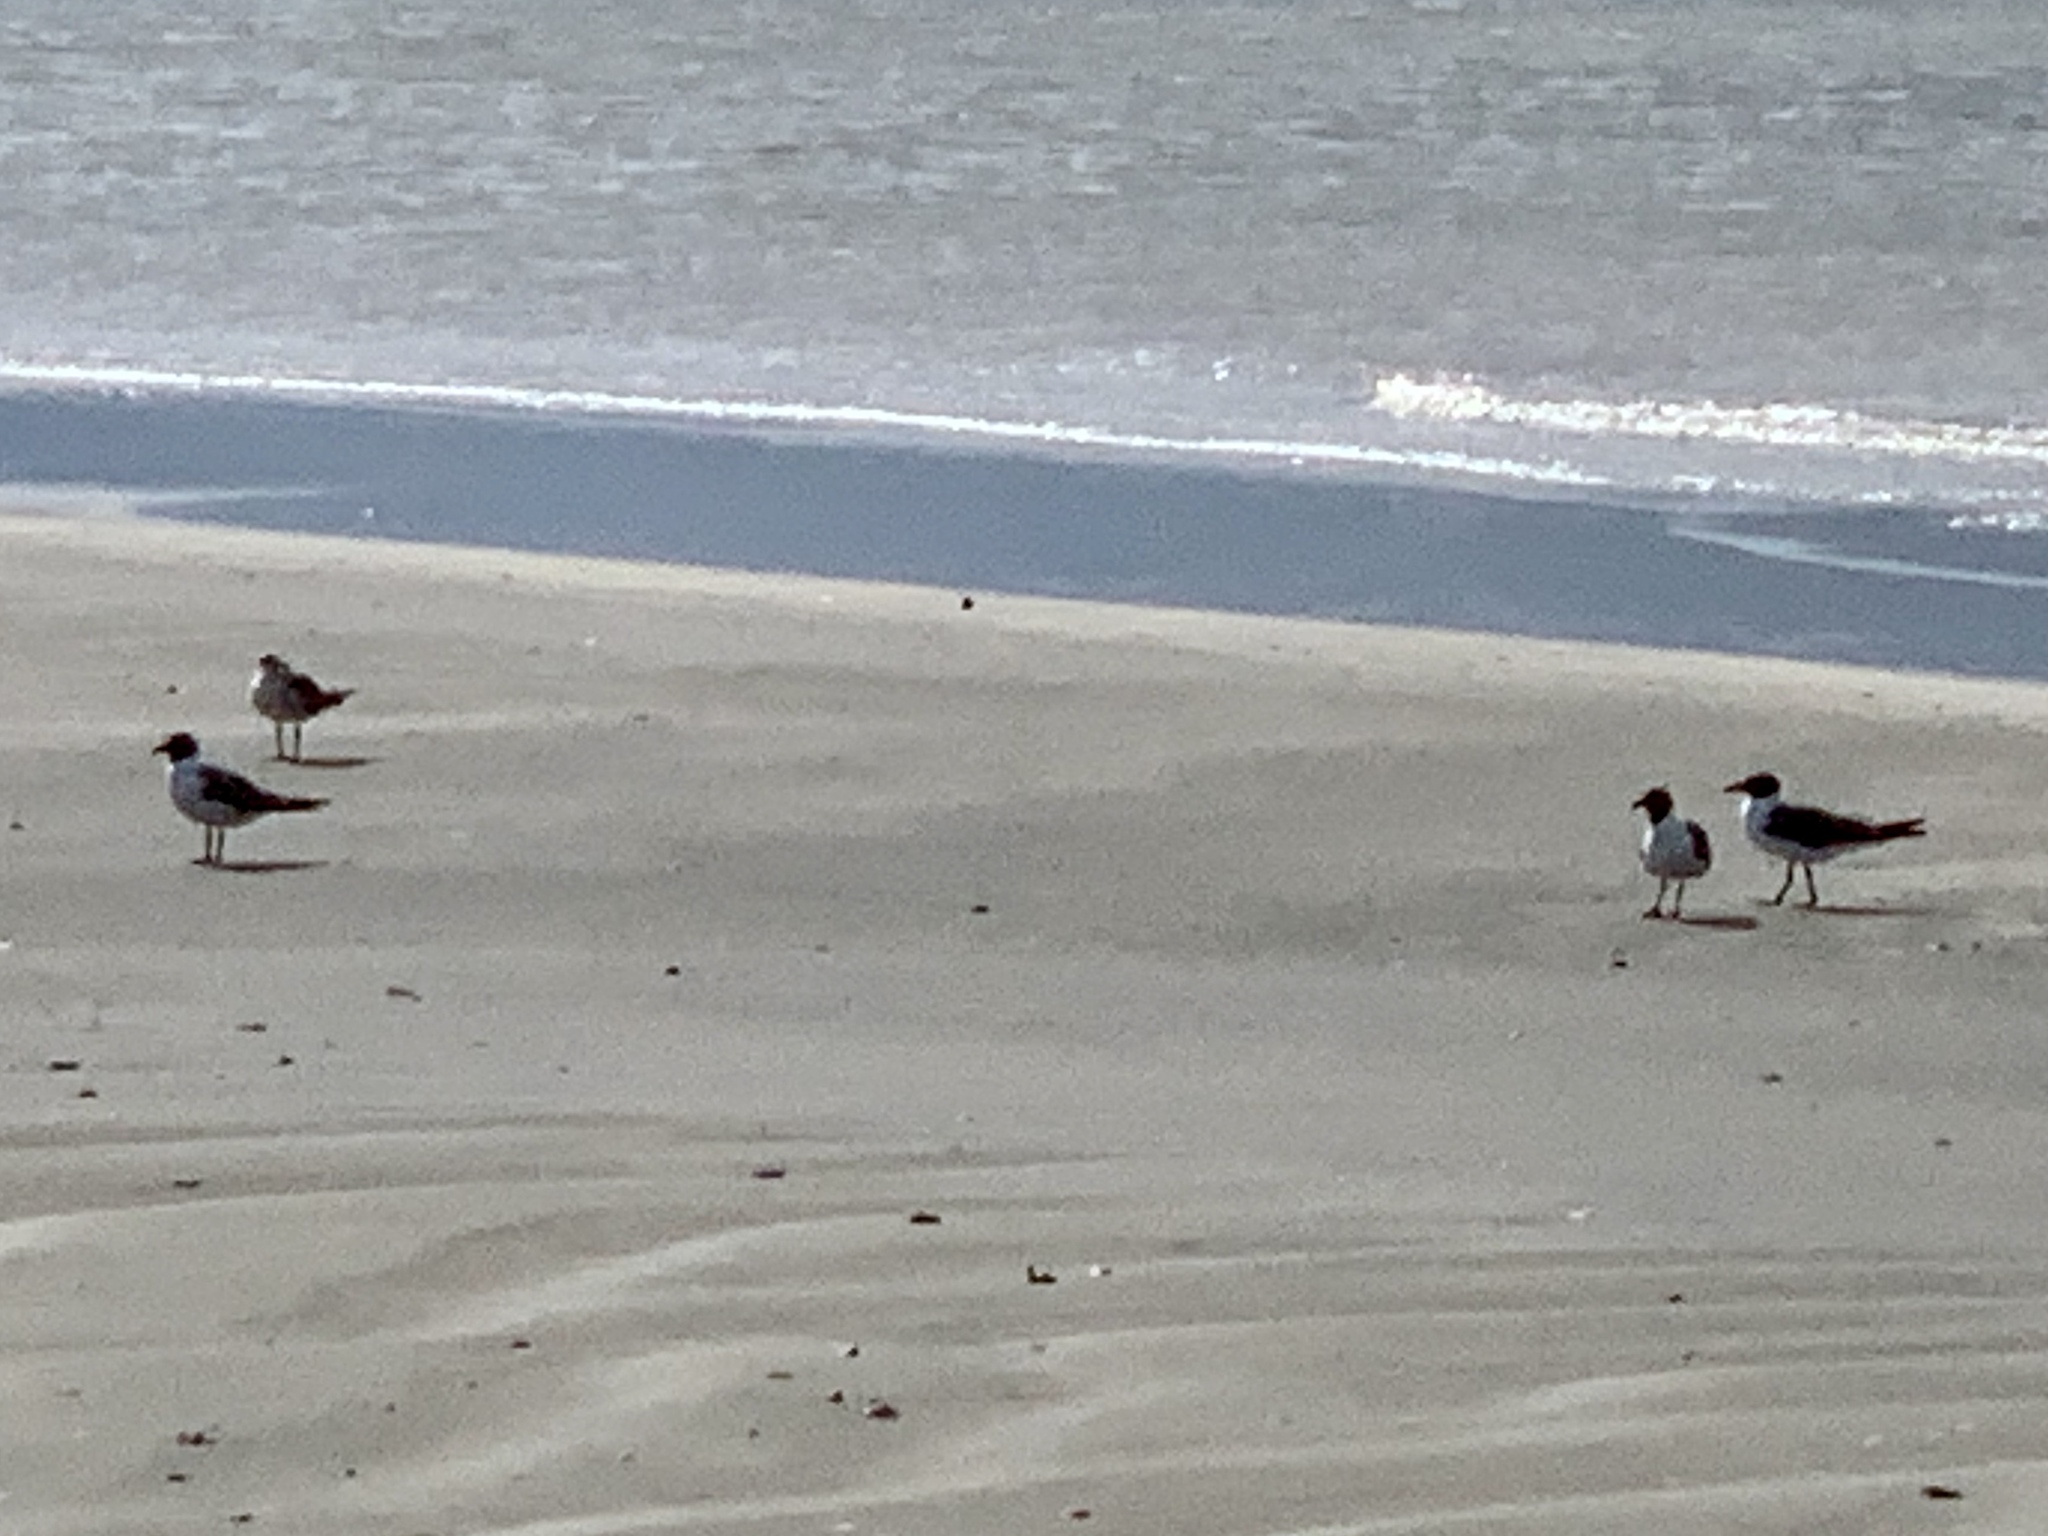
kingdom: Animalia
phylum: Chordata
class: Aves
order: Charadriiformes
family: Laridae
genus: Leucophaeus
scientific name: Leucophaeus atricilla
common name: Laughing gull
